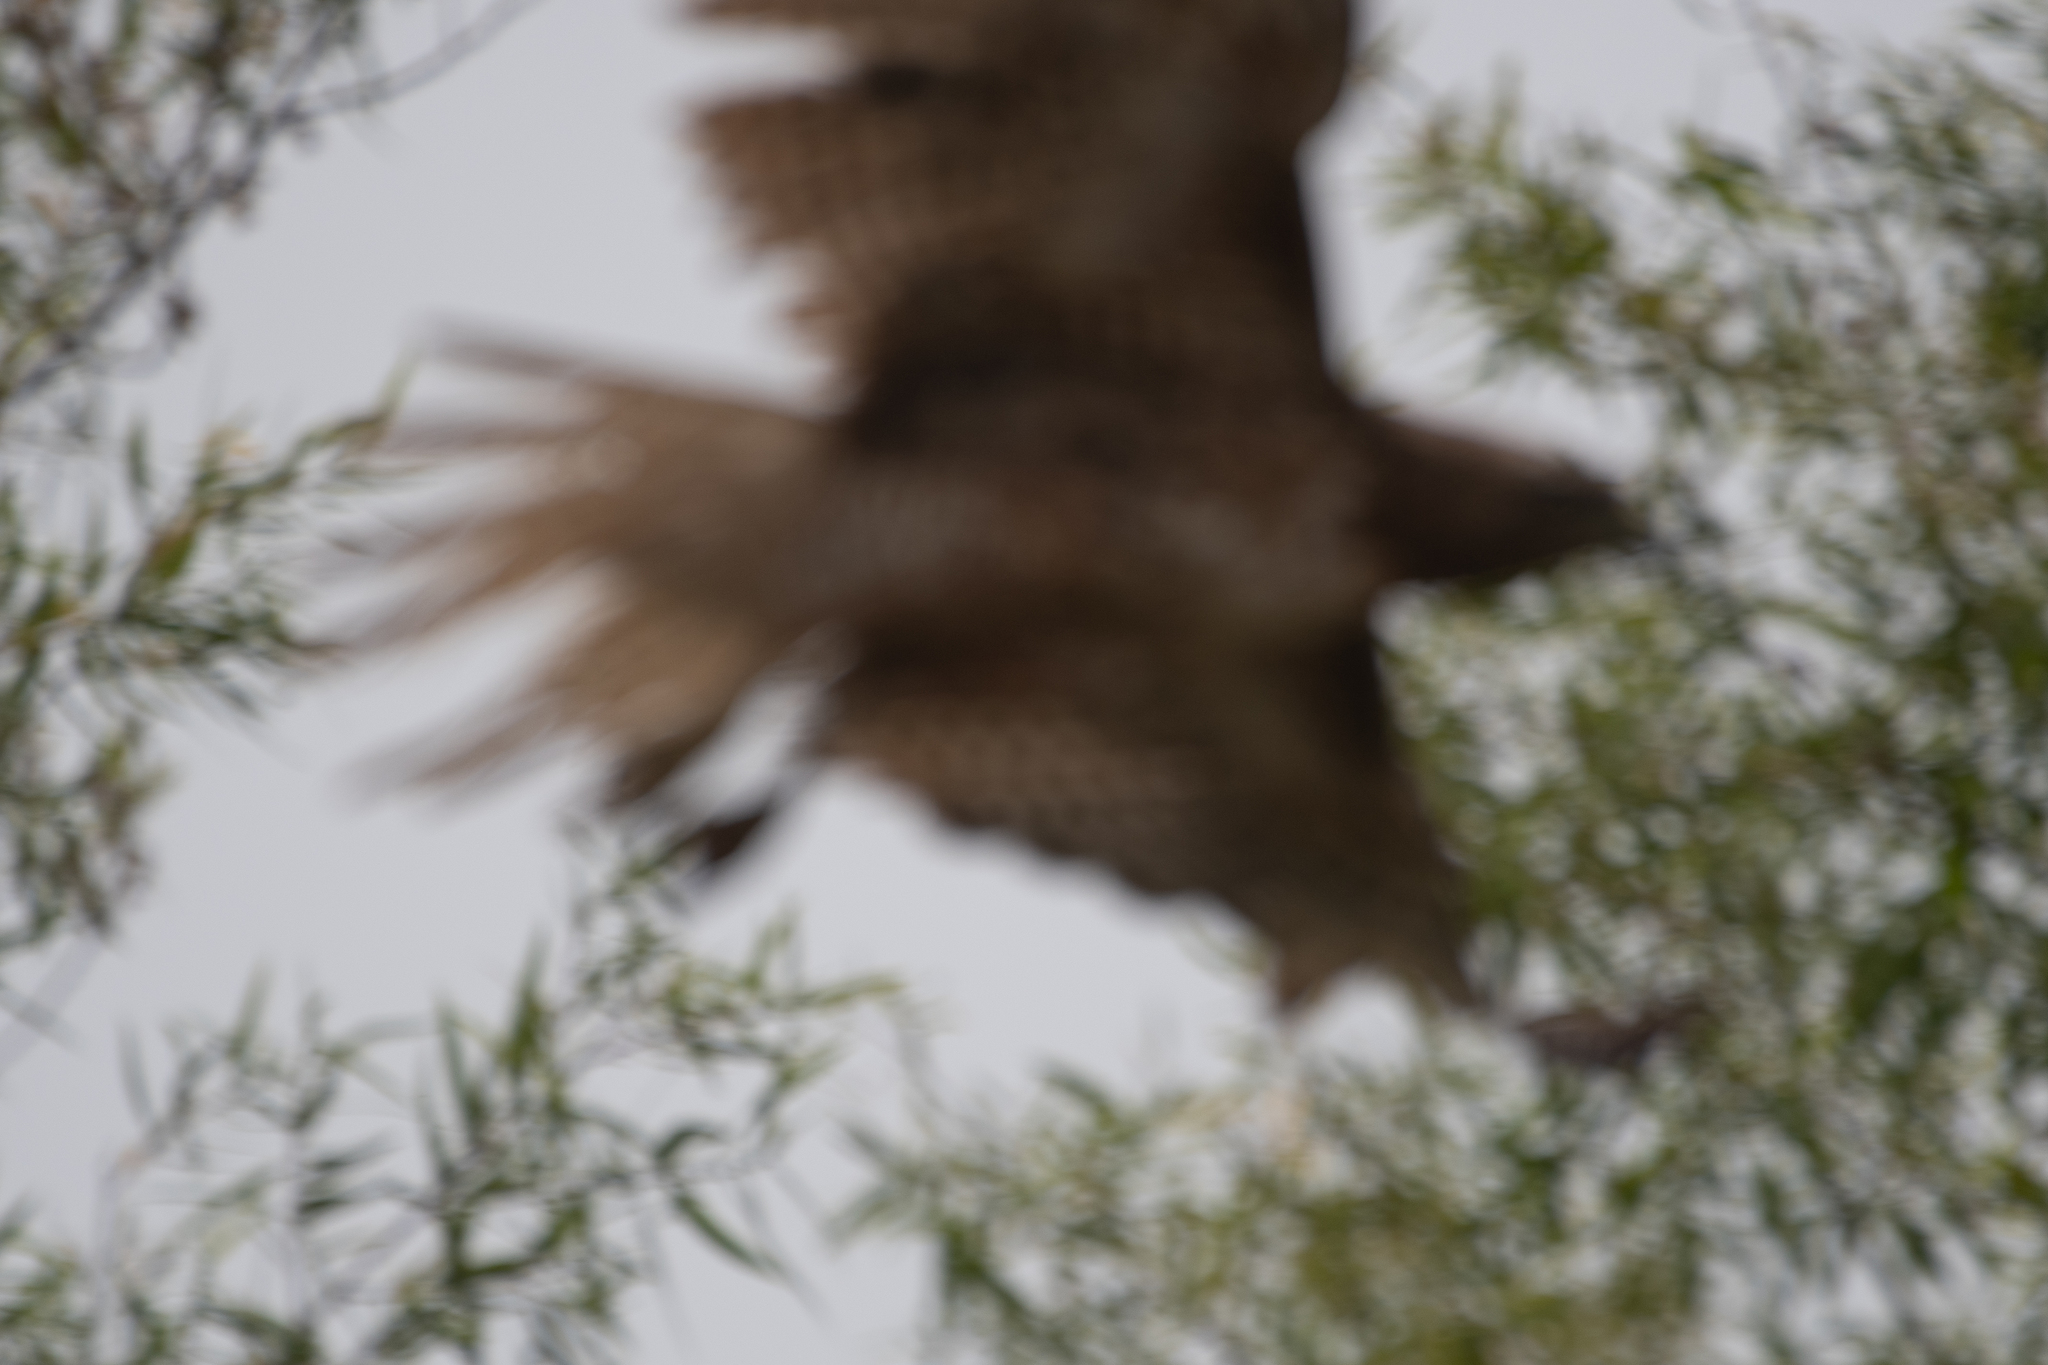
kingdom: Animalia
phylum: Chordata
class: Aves
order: Accipitriformes
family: Accipitridae
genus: Buteo
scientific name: Buteo jamaicensis
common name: Red-tailed hawk
